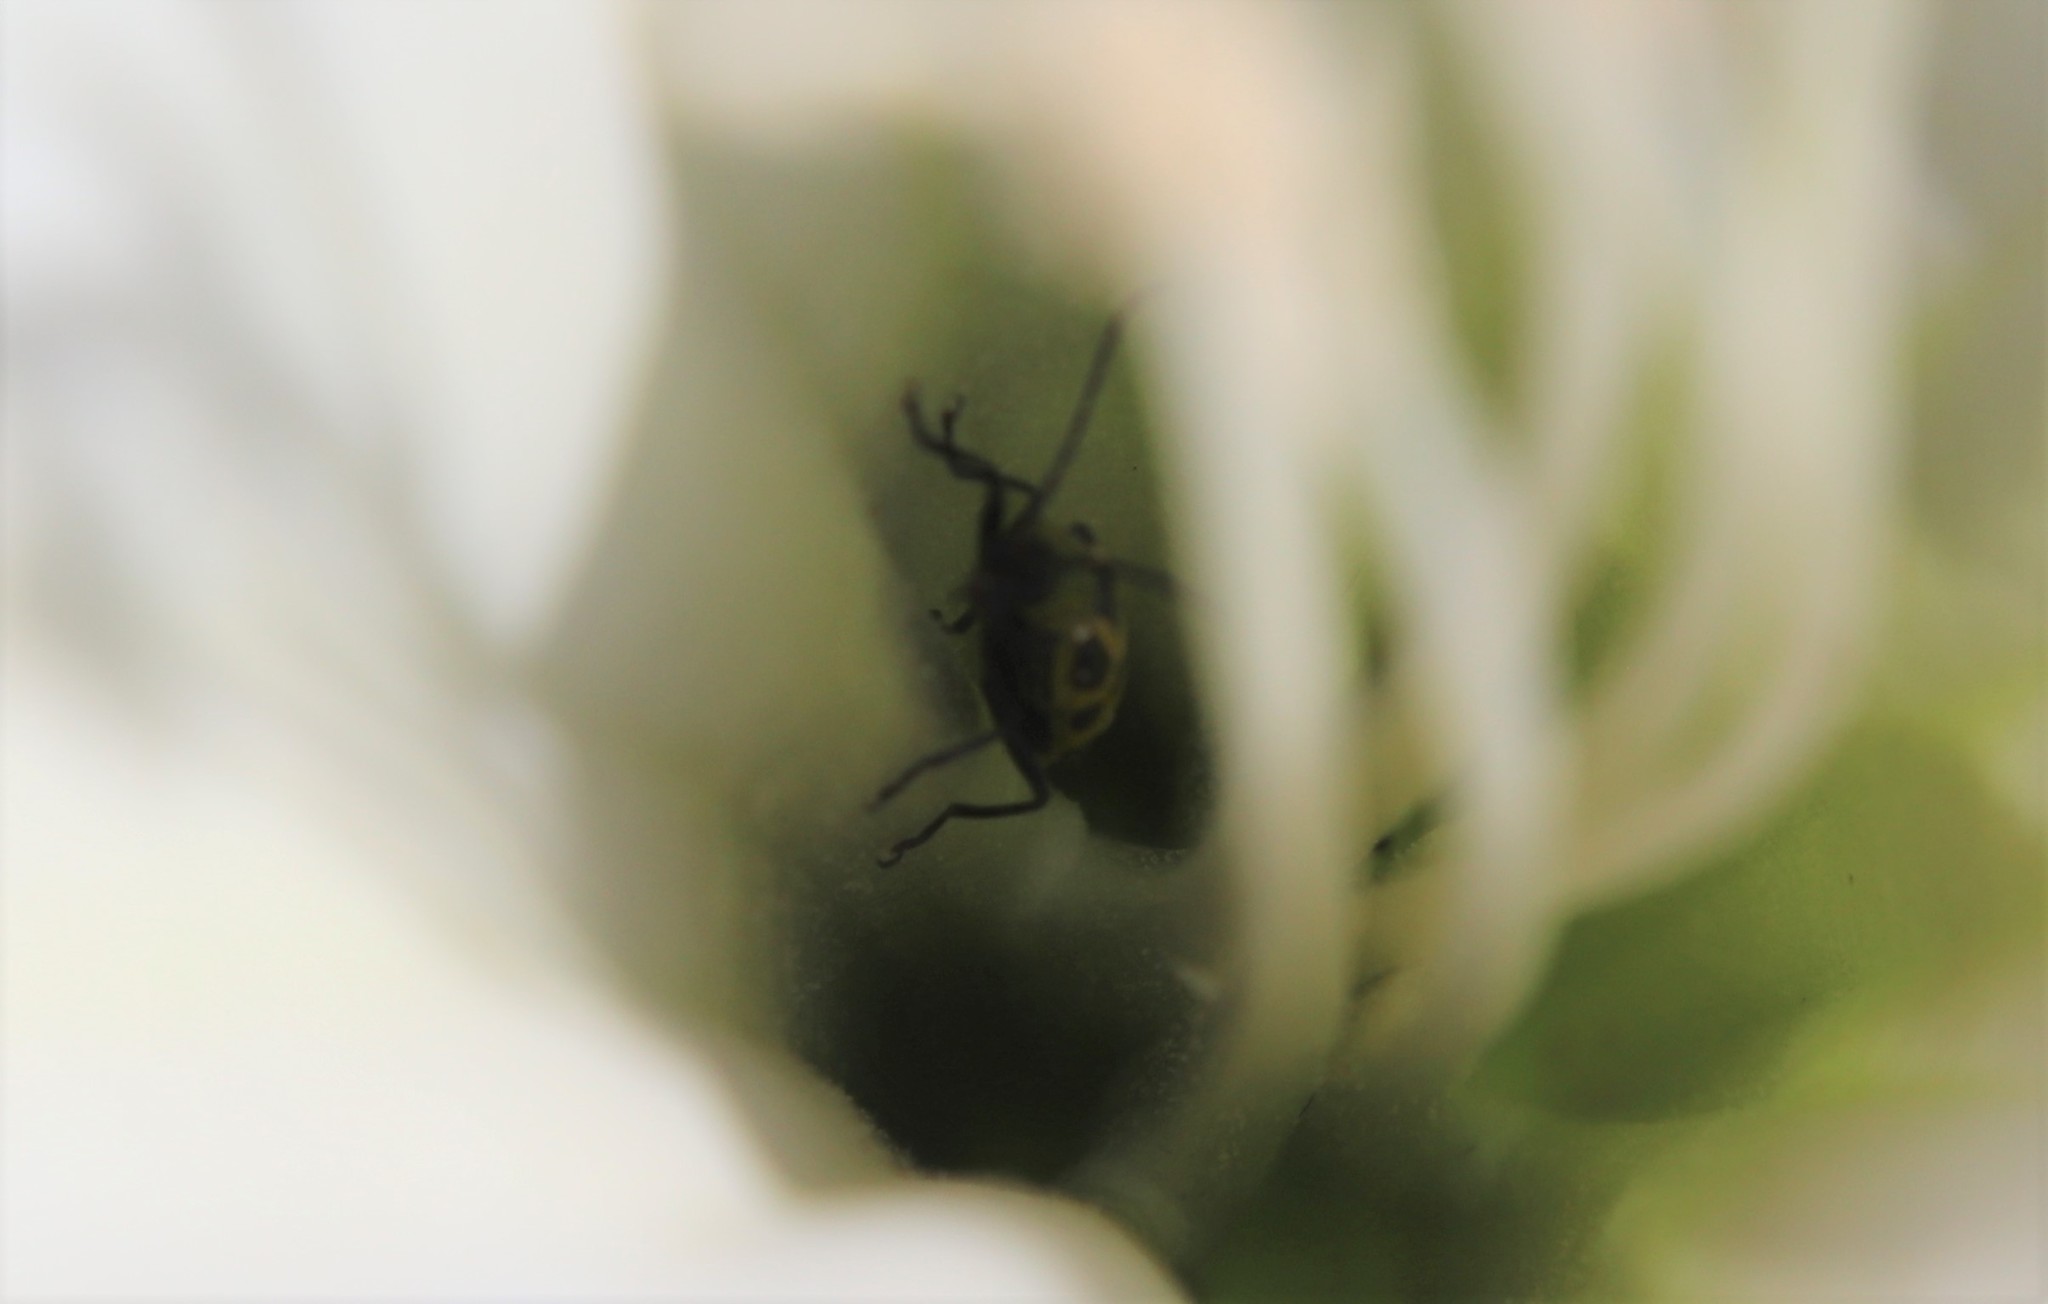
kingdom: Animalia
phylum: Arthropoda
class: Insecta
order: Coleoptera
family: Chrysomelidae
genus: Diabrotica
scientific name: Diabrotica undecimpunctata
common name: Spotted cucumber beetle
